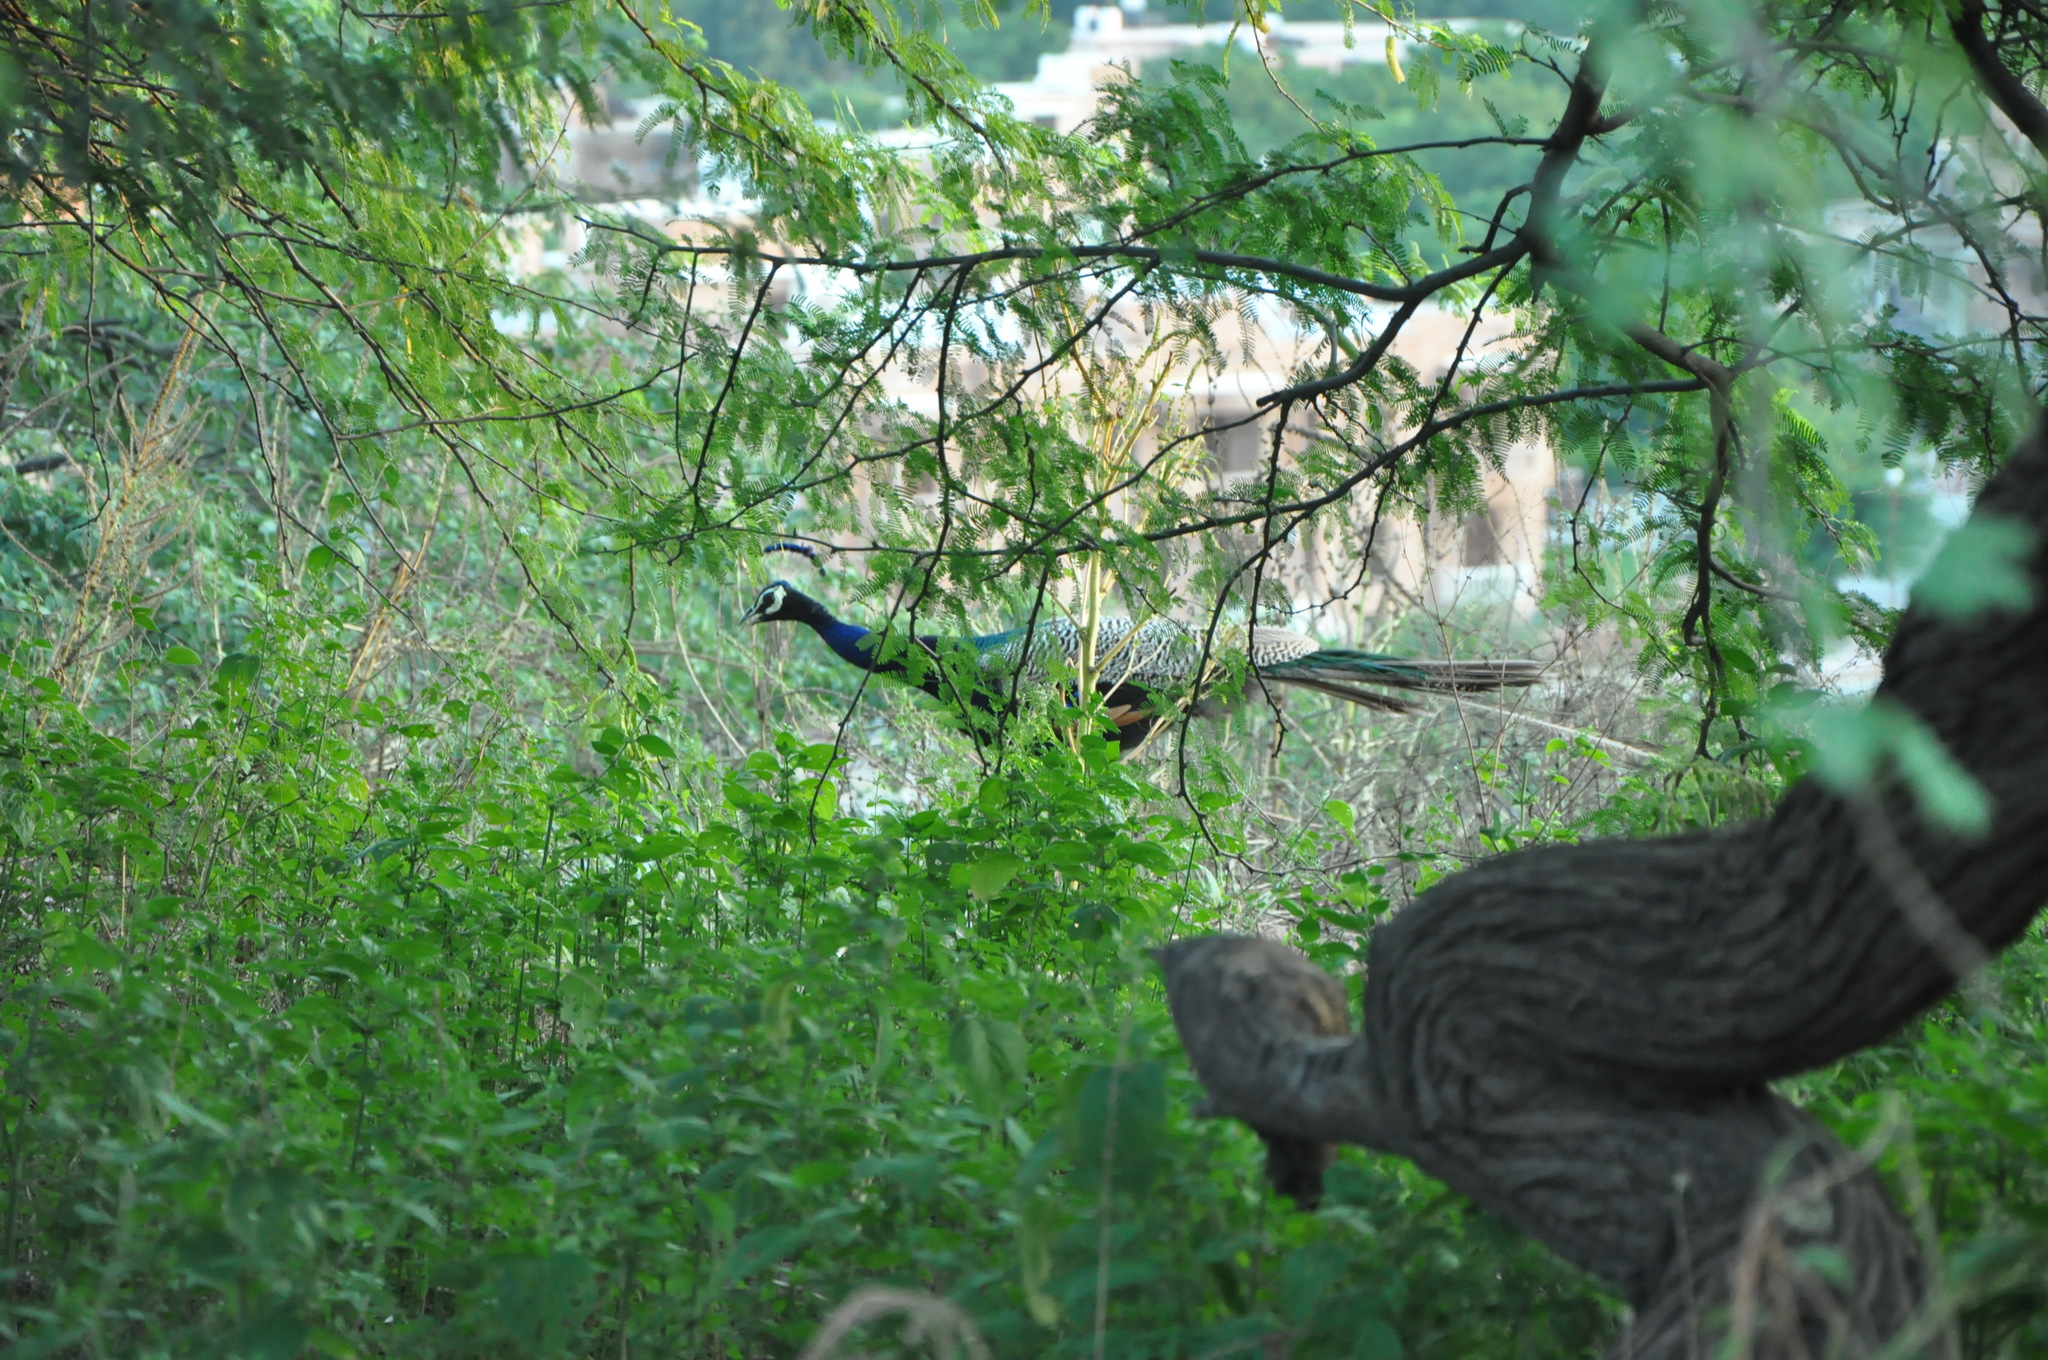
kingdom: Animalia
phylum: Chordata
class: Aves
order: Galliformes
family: Phasianidae
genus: Pavo
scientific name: Pavo cristatus
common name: Indian peafowl
